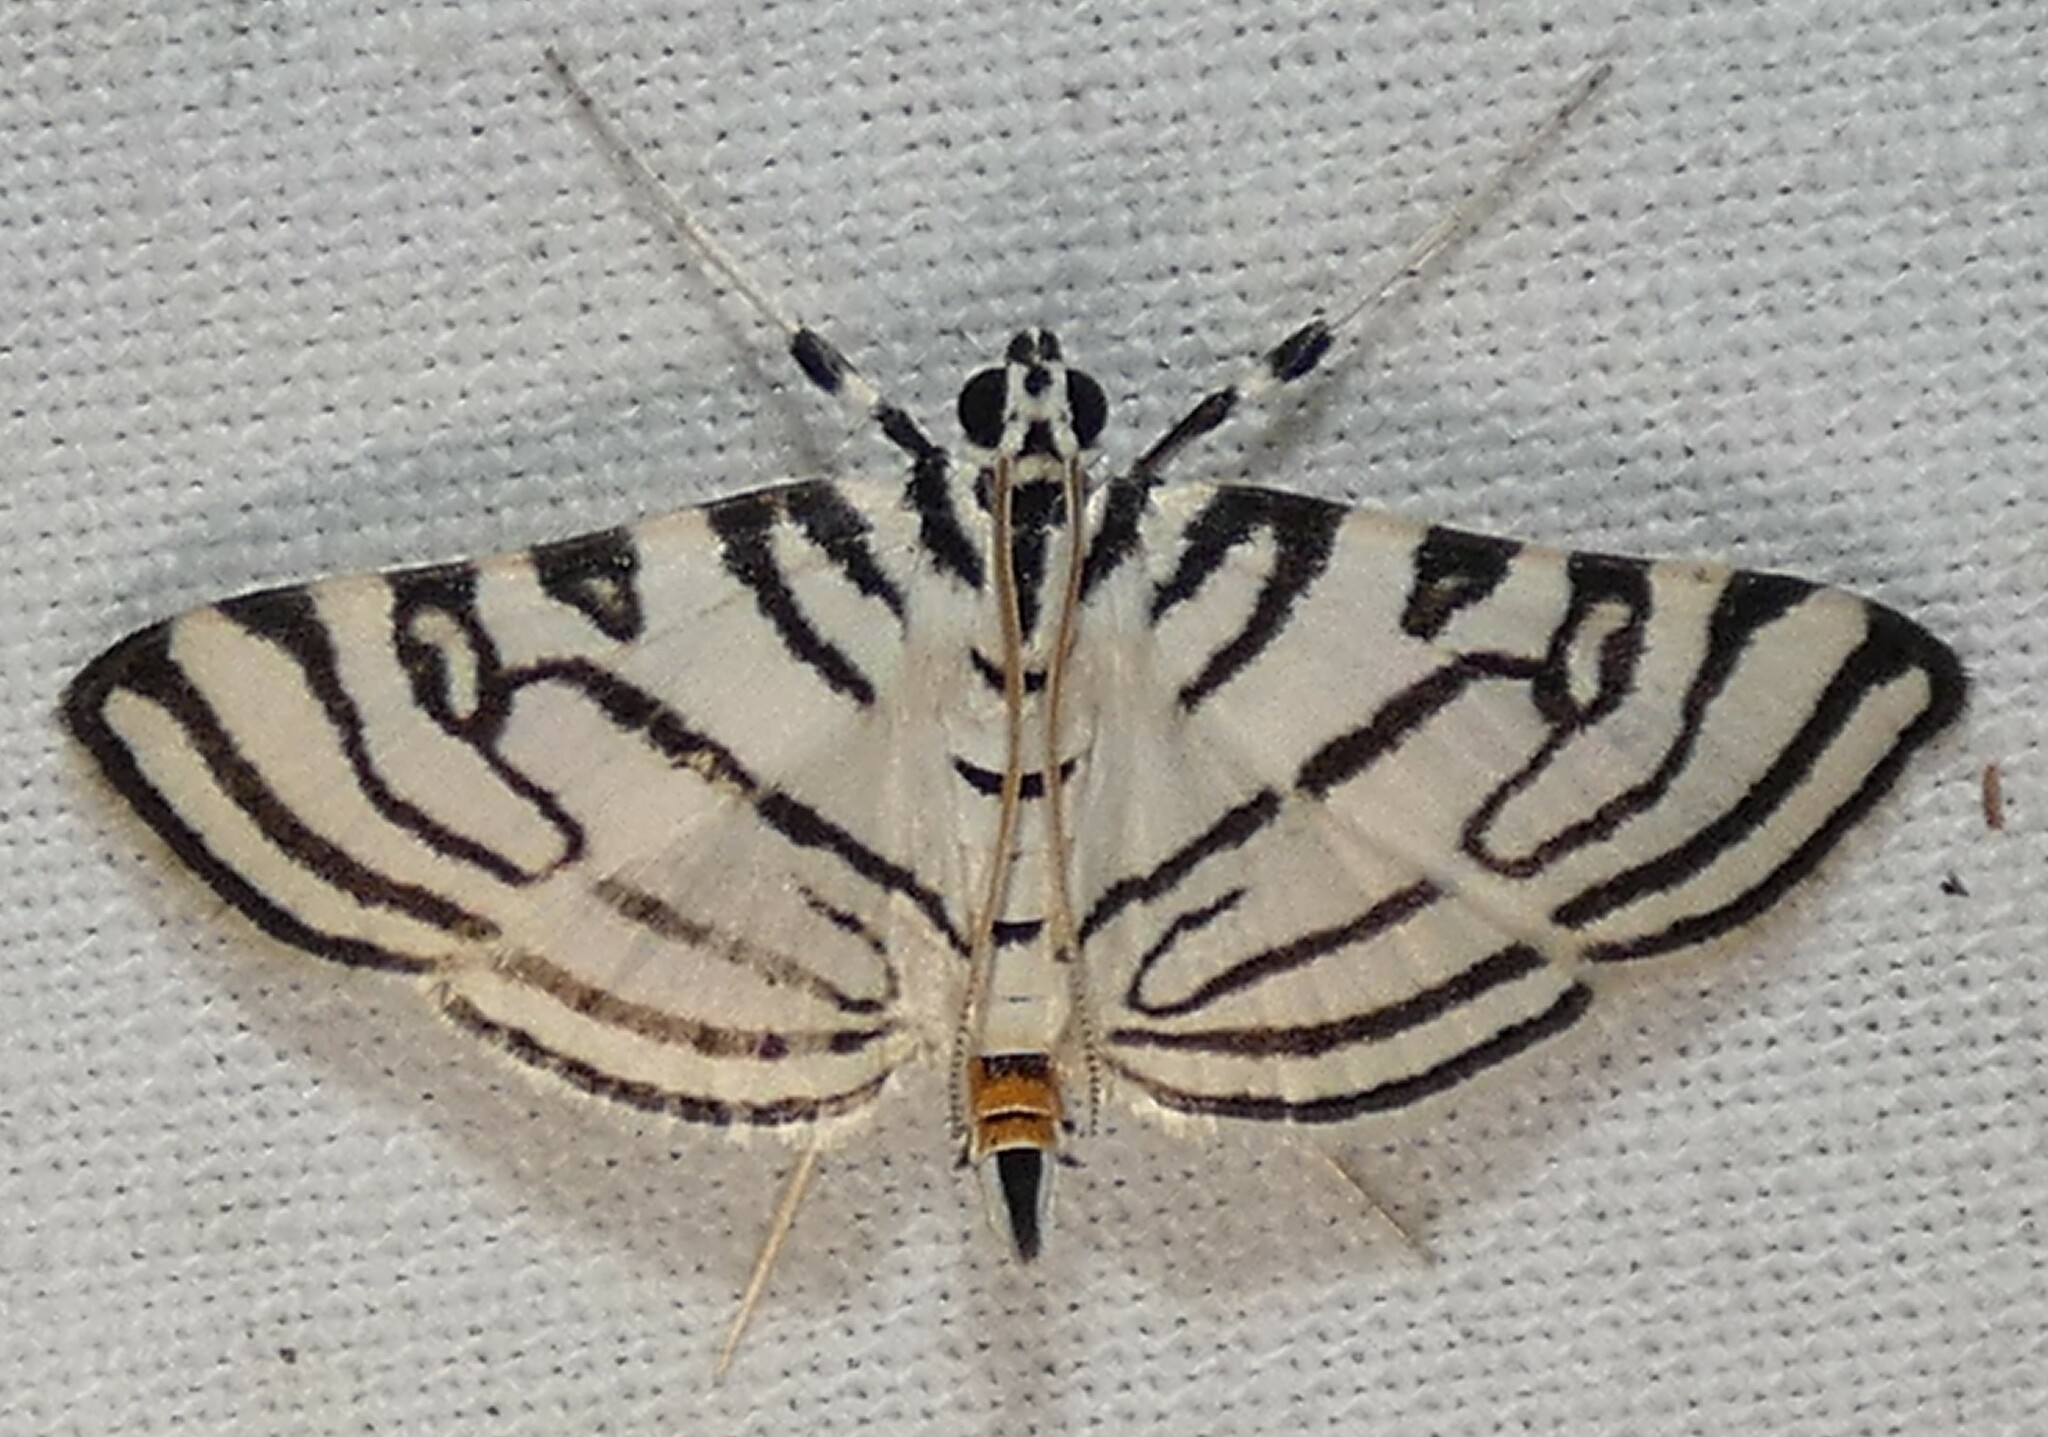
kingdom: Animalia
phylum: Arthropoda
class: Insecta
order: Lepidoptera
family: Crambidae
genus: Conchylodes
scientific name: Conchylodes concinnalis
